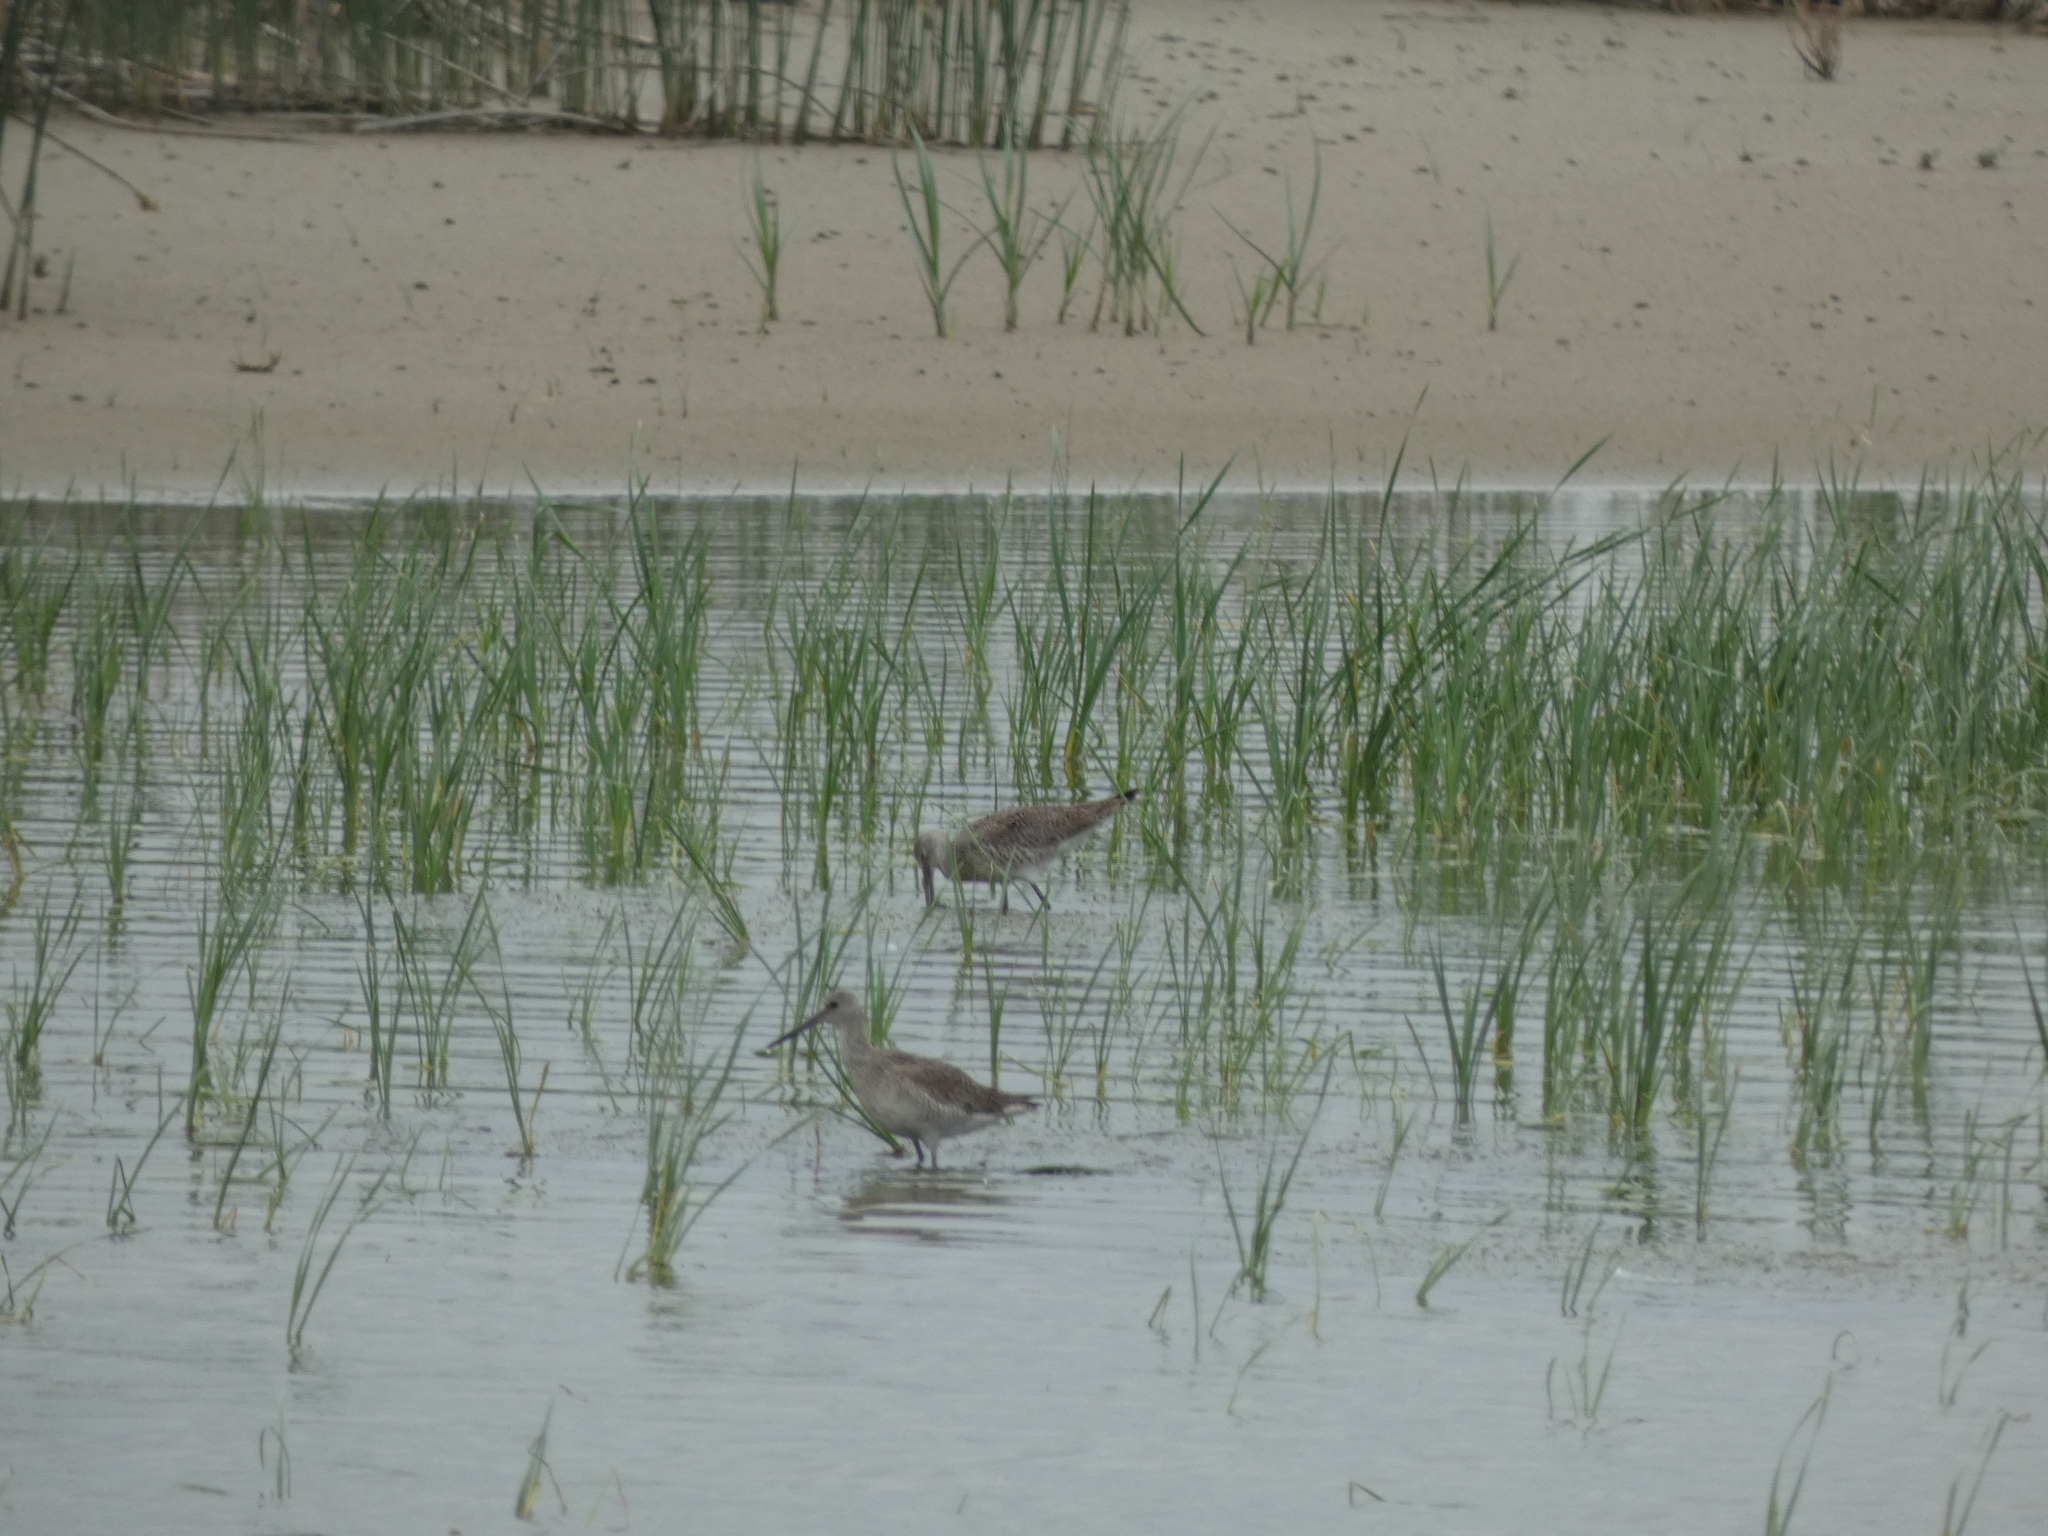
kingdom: Animalia
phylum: Chordata
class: Aves
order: Charadriiformes
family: Scolopacidae
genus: Tringa
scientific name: Tringa semipalmata
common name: Willet
